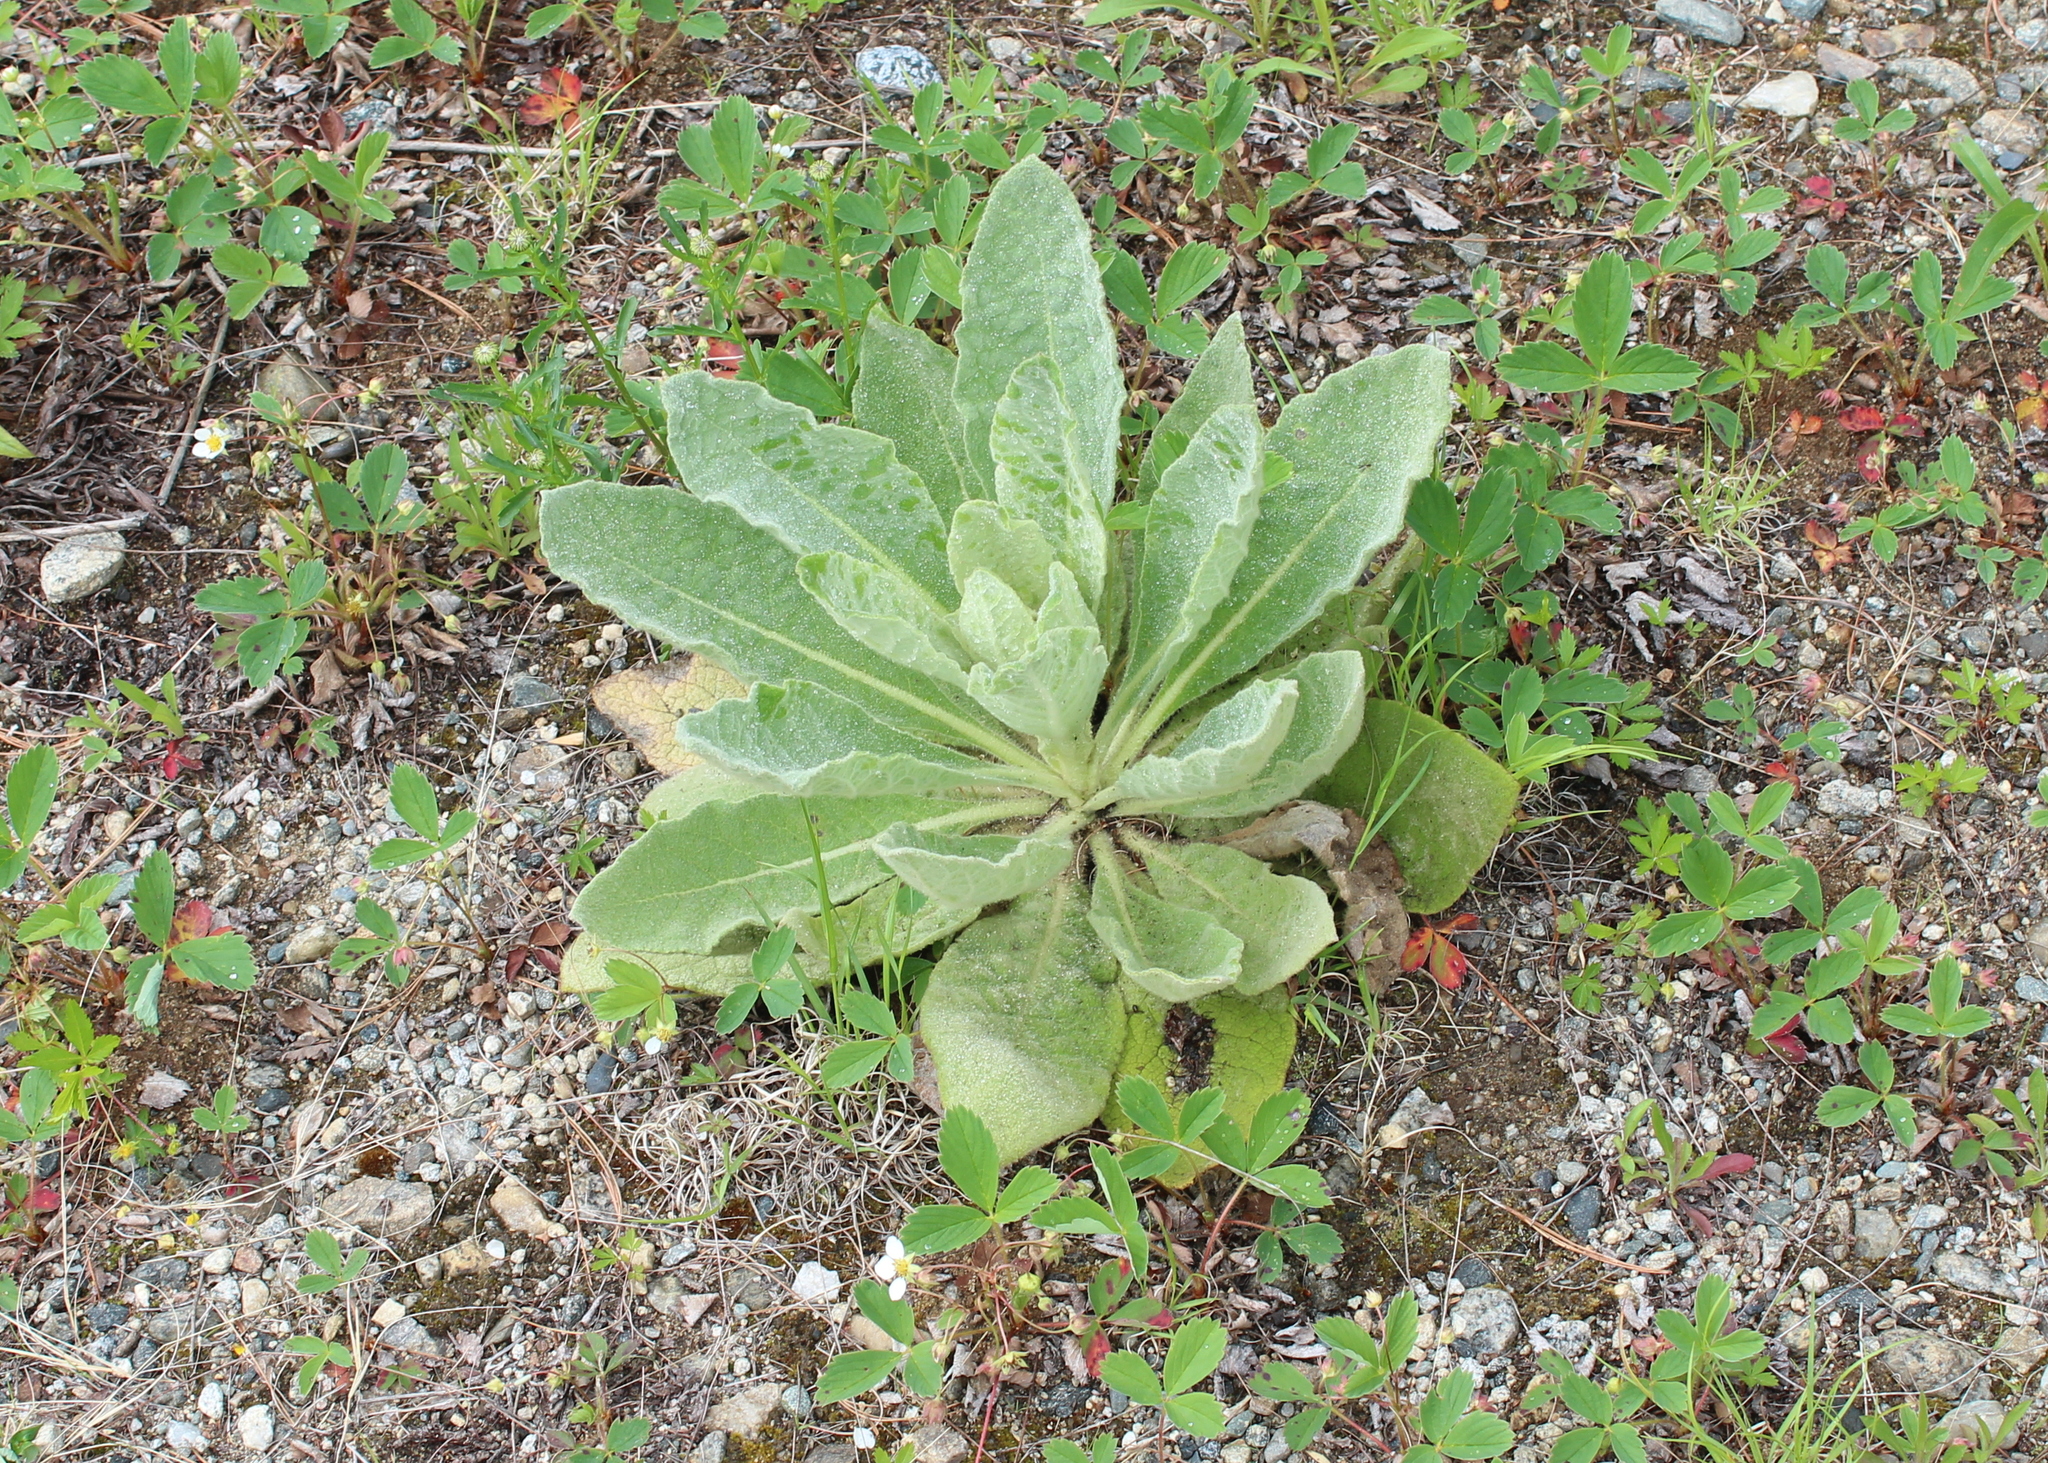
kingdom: Plantae
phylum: Tracheophyta
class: Magnoliopsida
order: Lamiales
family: Scrophulariaceae
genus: Verbascum
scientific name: Verbascum thapsus
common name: Common mullein
